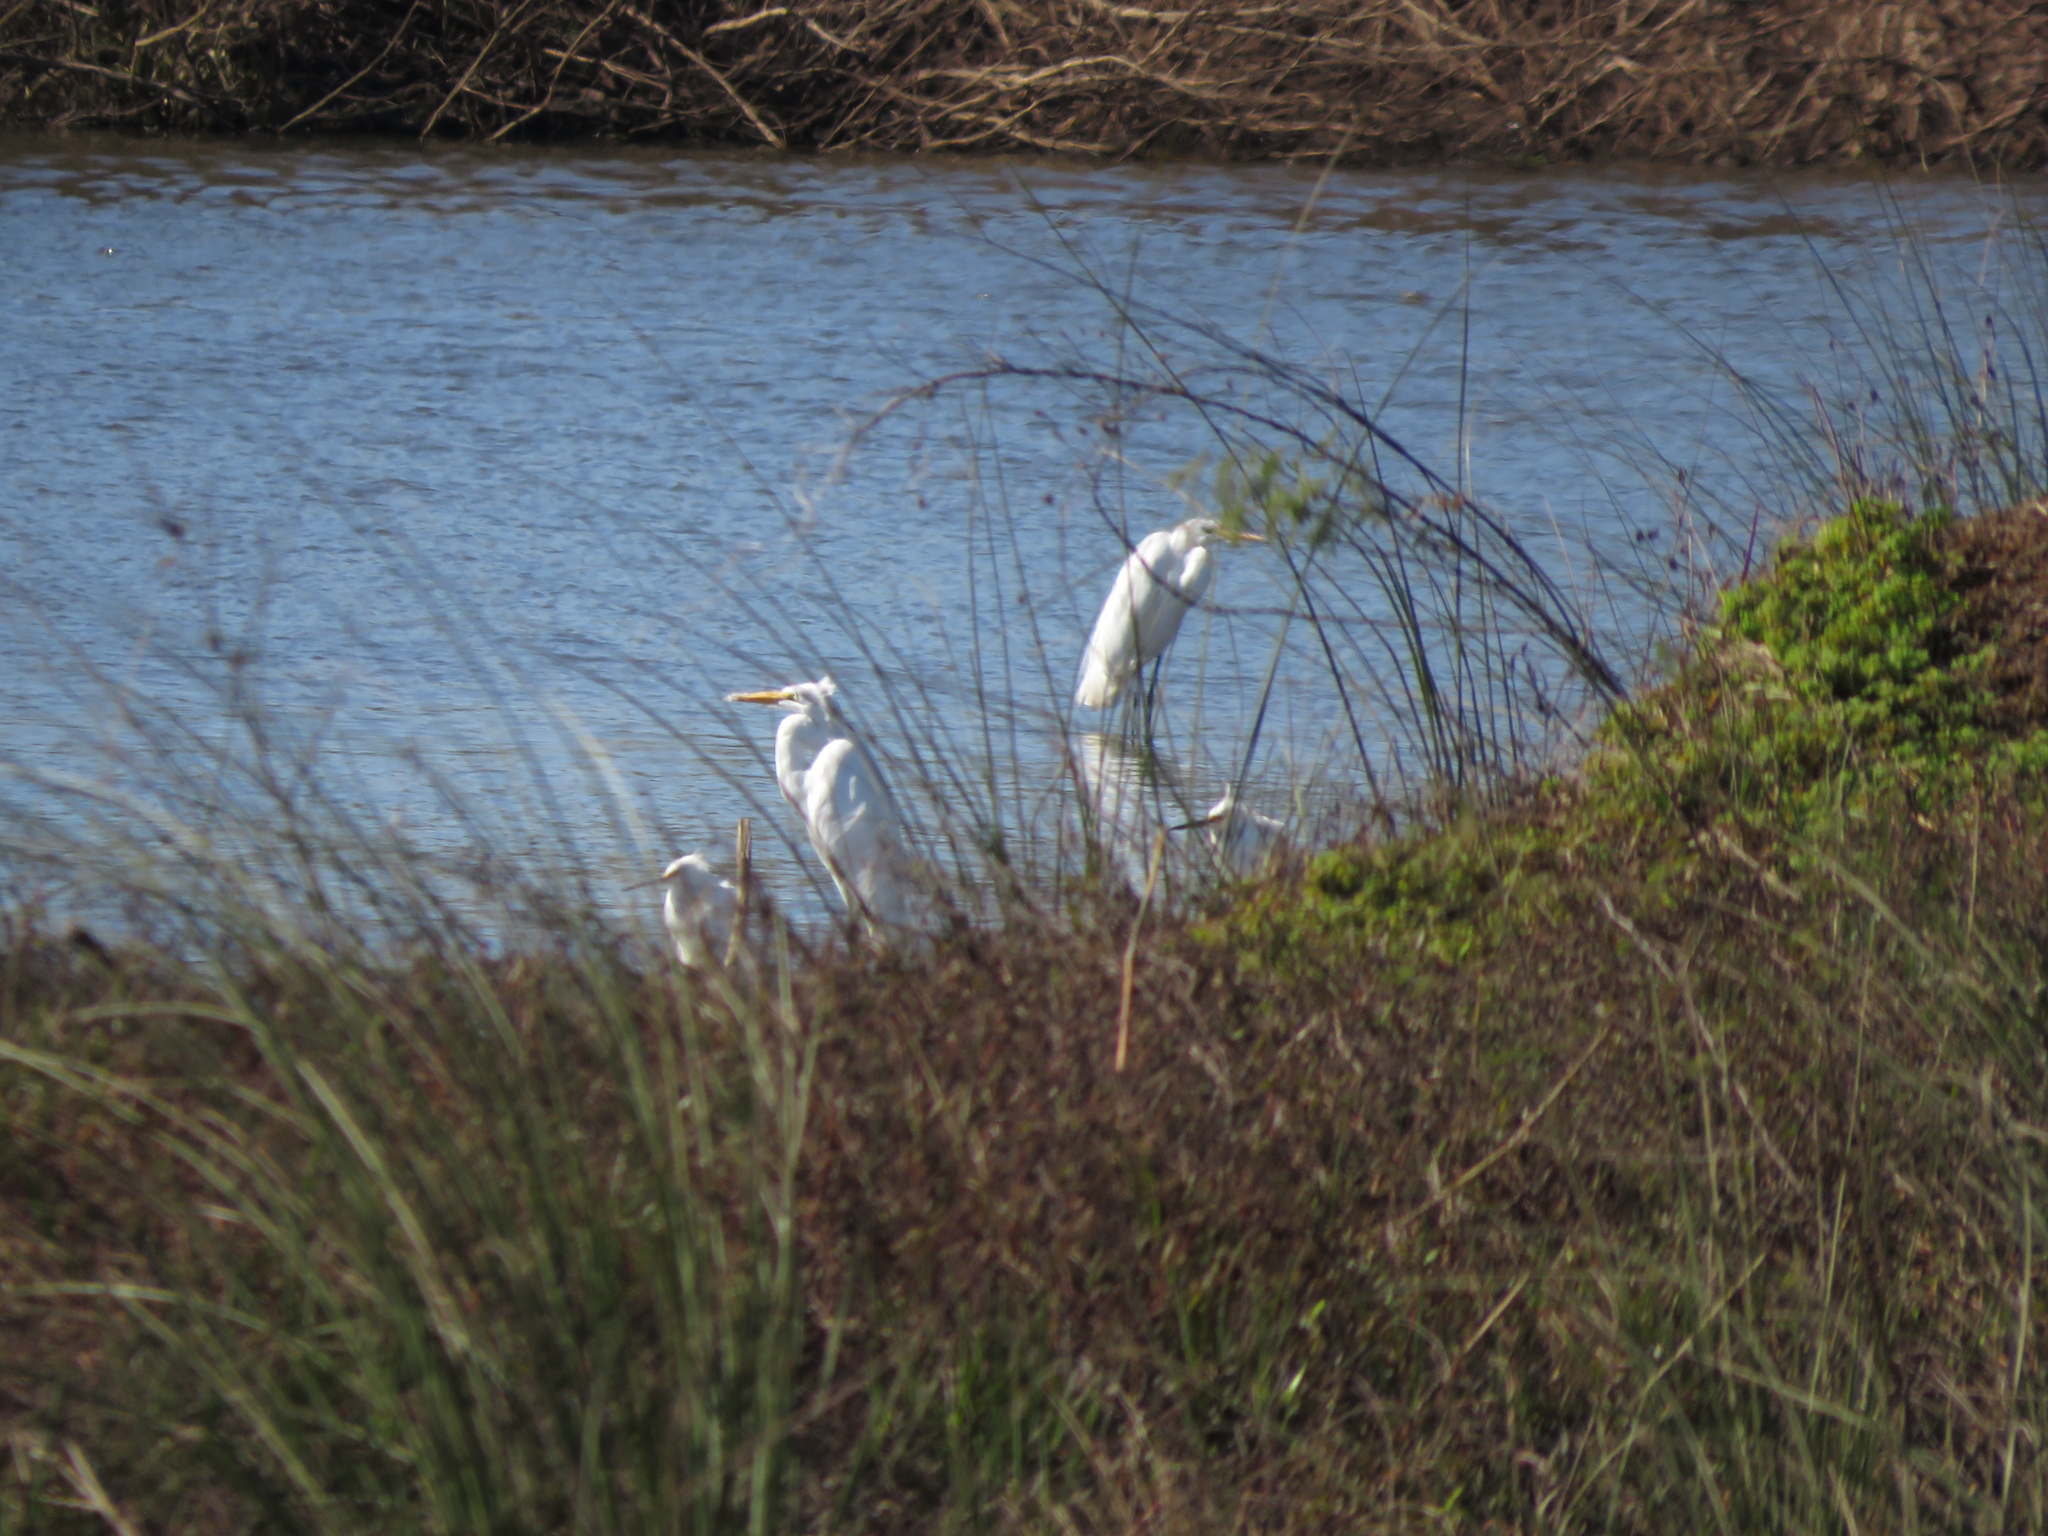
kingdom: Animalia
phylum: Chordata
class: Aves
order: Pelecaniformes
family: Ardeidae
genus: Ardea
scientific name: Ardea alba
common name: Great egret
